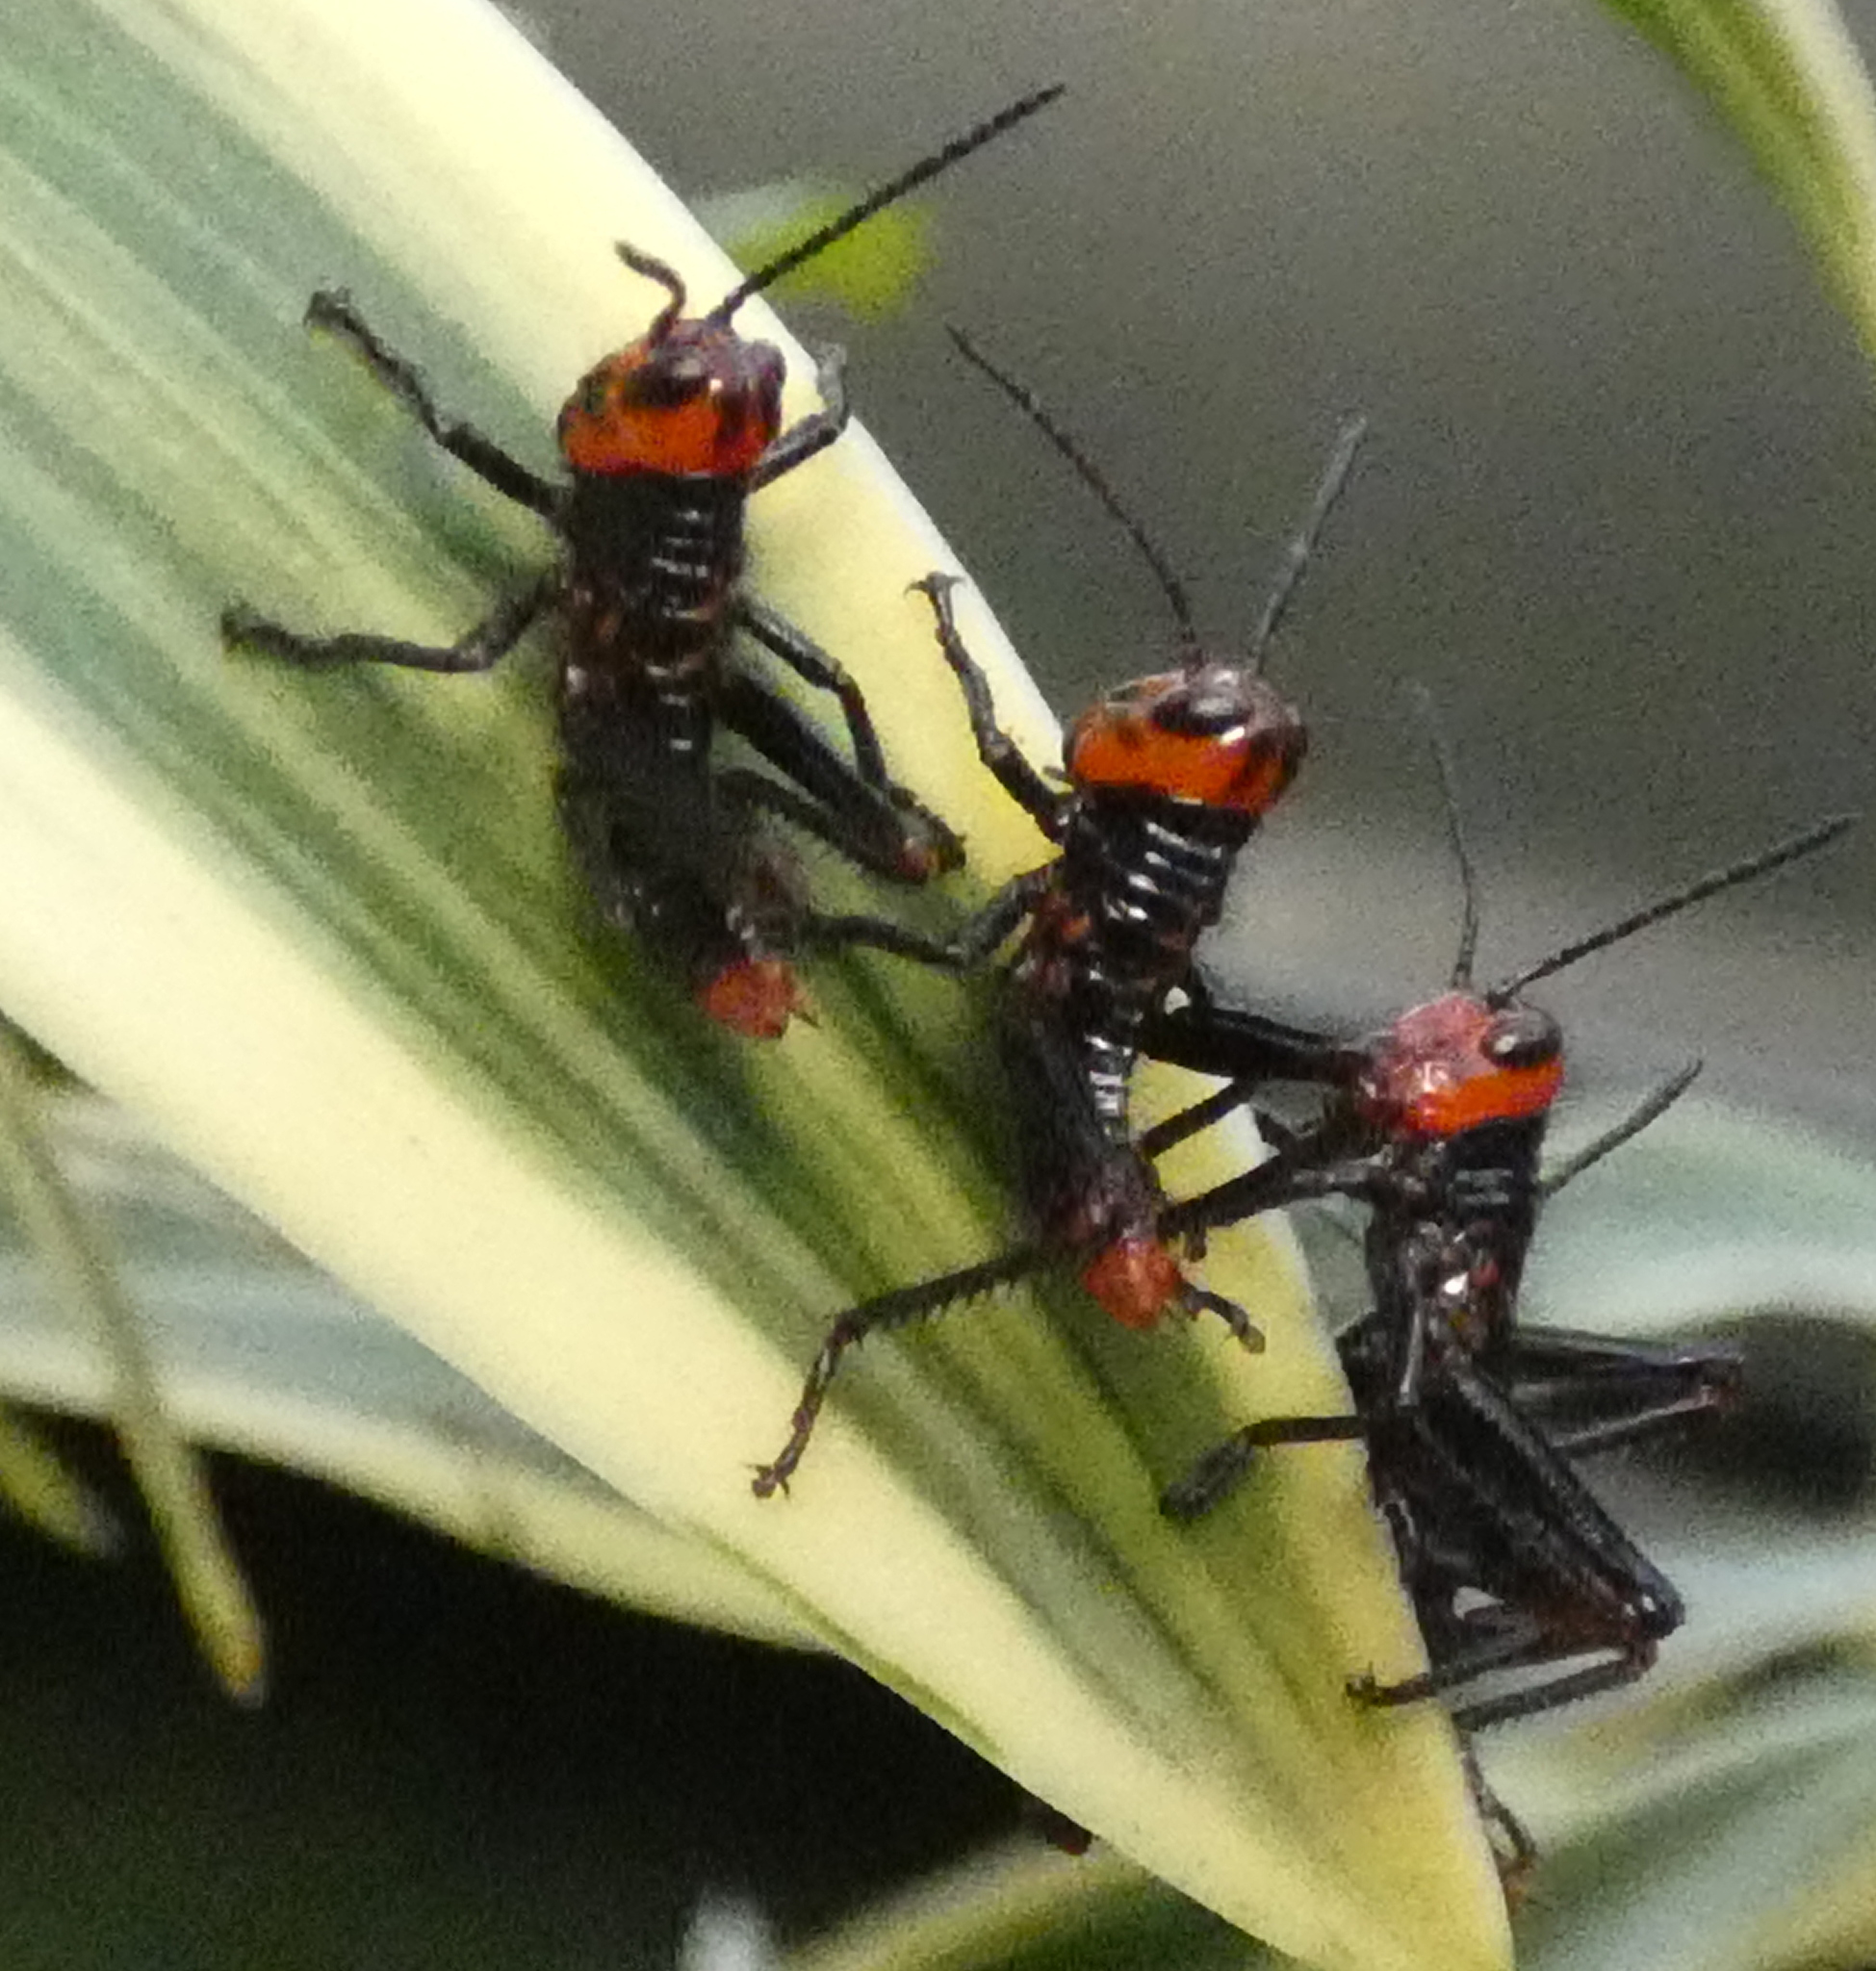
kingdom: Animalia
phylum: Arthropoda
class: Insecta
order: Orthoptera
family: Romaleidae
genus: Tropidacris
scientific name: Tropidacris collaris
